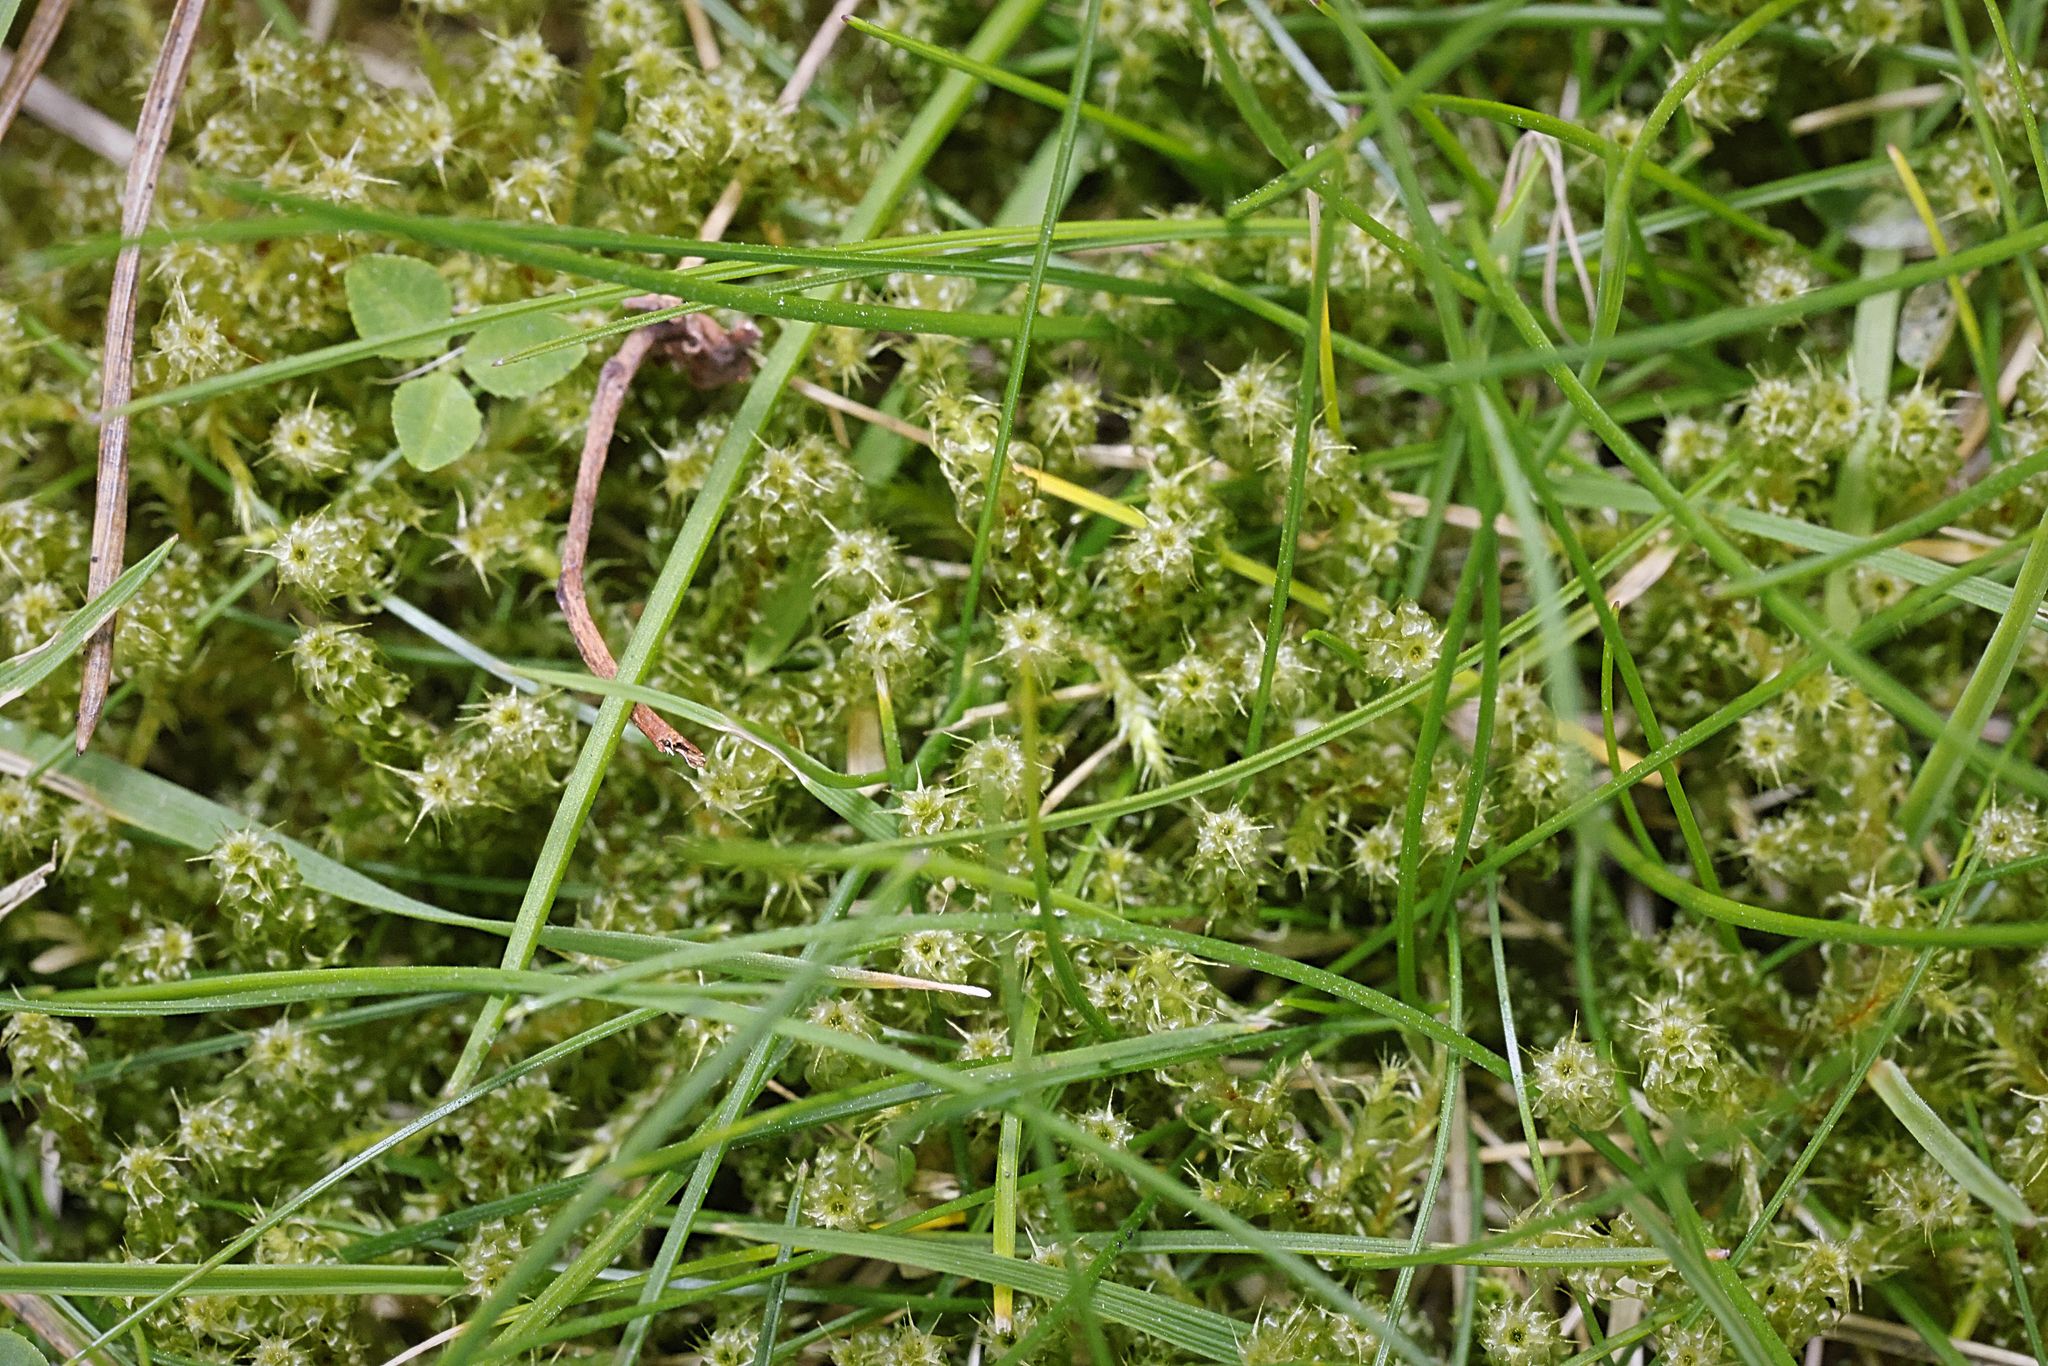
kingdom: Plantae
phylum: Bryophyta
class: Bryopsida
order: Hypnales
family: Hylocomiaceae
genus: Rhytidiadelphus
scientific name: Rhytidiadelphus squarrosus
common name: Springy turf-moss
